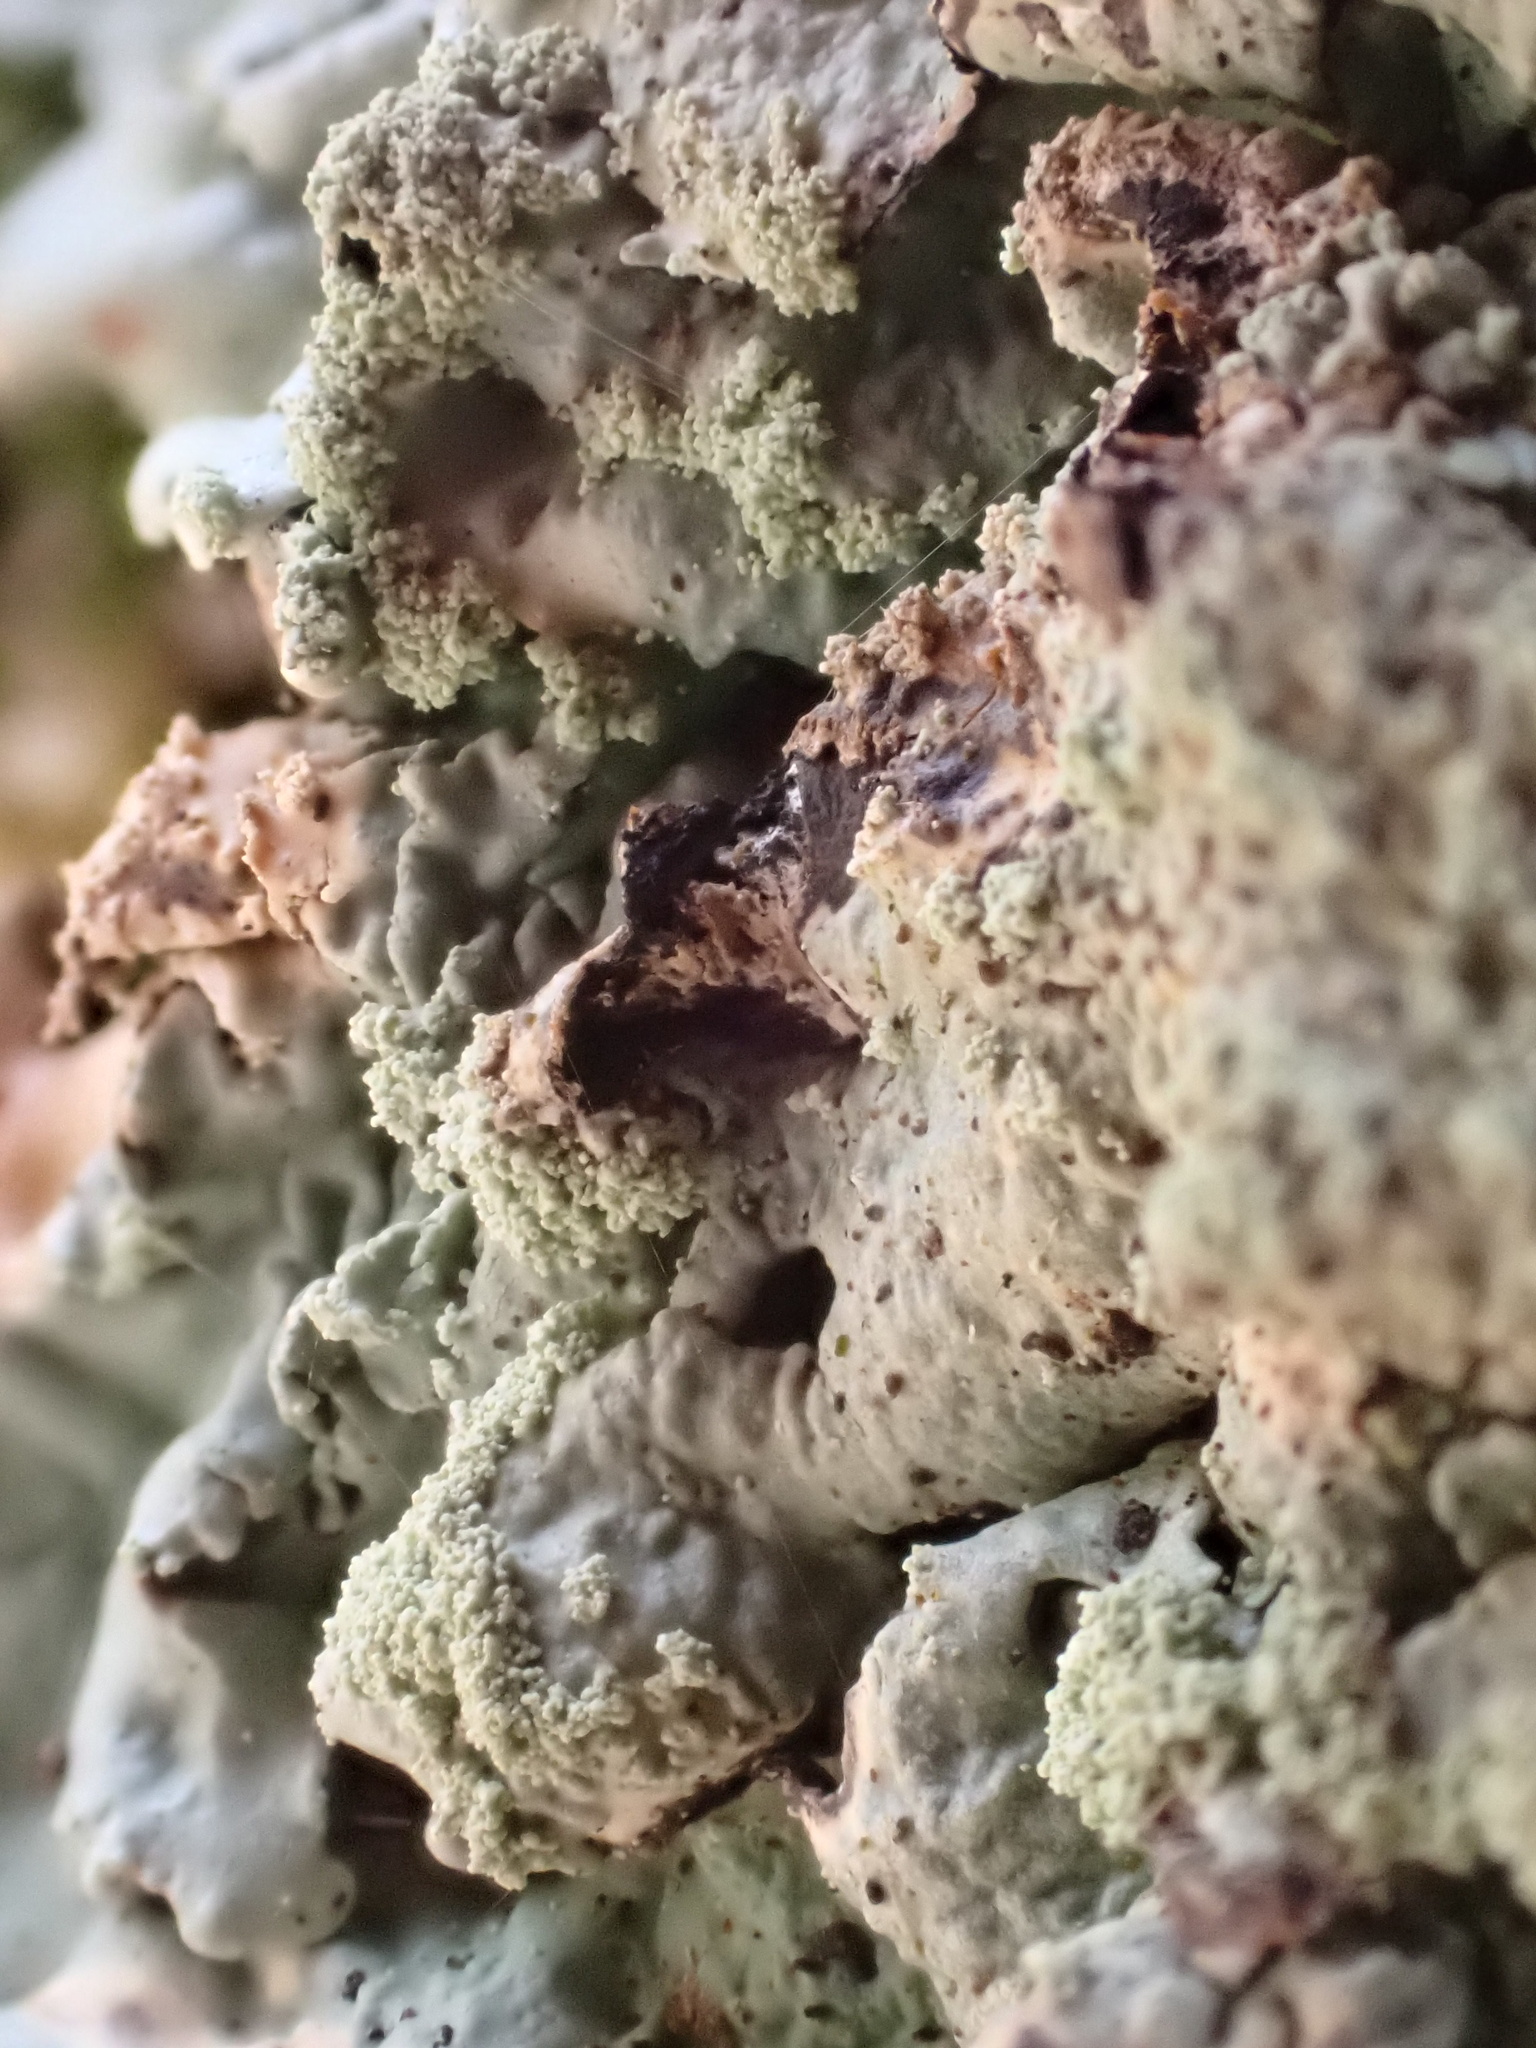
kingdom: Fungi
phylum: Ascomycota
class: Lecanoromycetes
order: Lecanorales
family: Parmeliaceae
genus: Flavoparmelia
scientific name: Flavoparmelia caperata
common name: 40-mile per hour lichen
